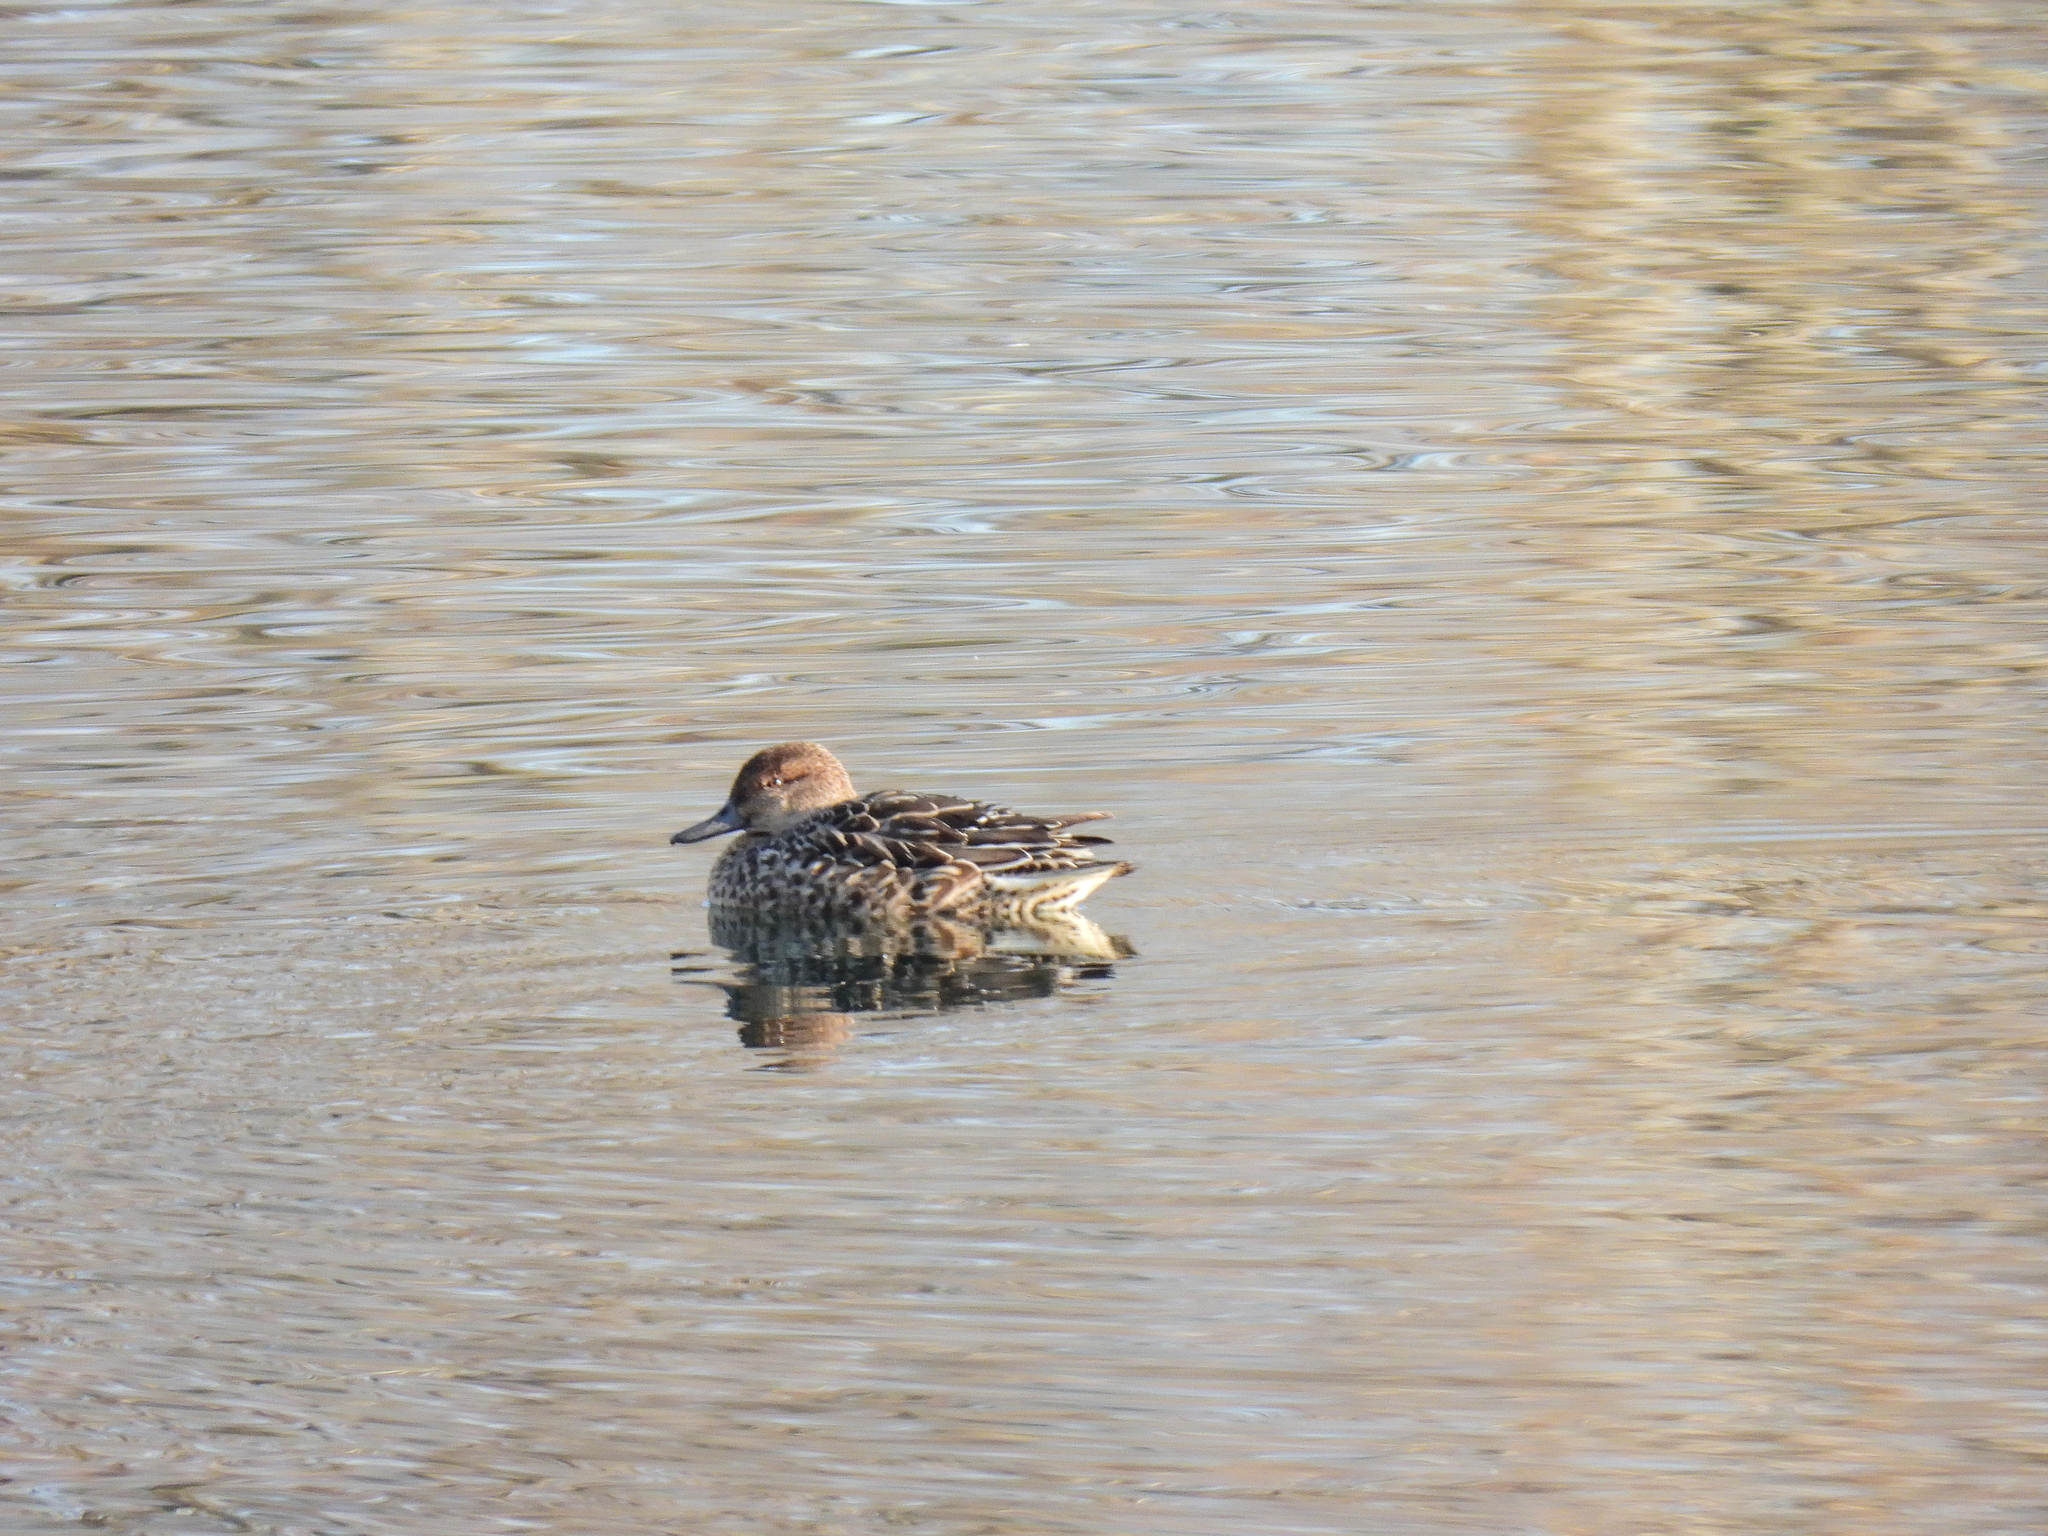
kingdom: Animalia
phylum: Chordata
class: Aves
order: Anseriformes
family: Anatidae
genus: Anas
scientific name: Anas crecca
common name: Eurasian teal
